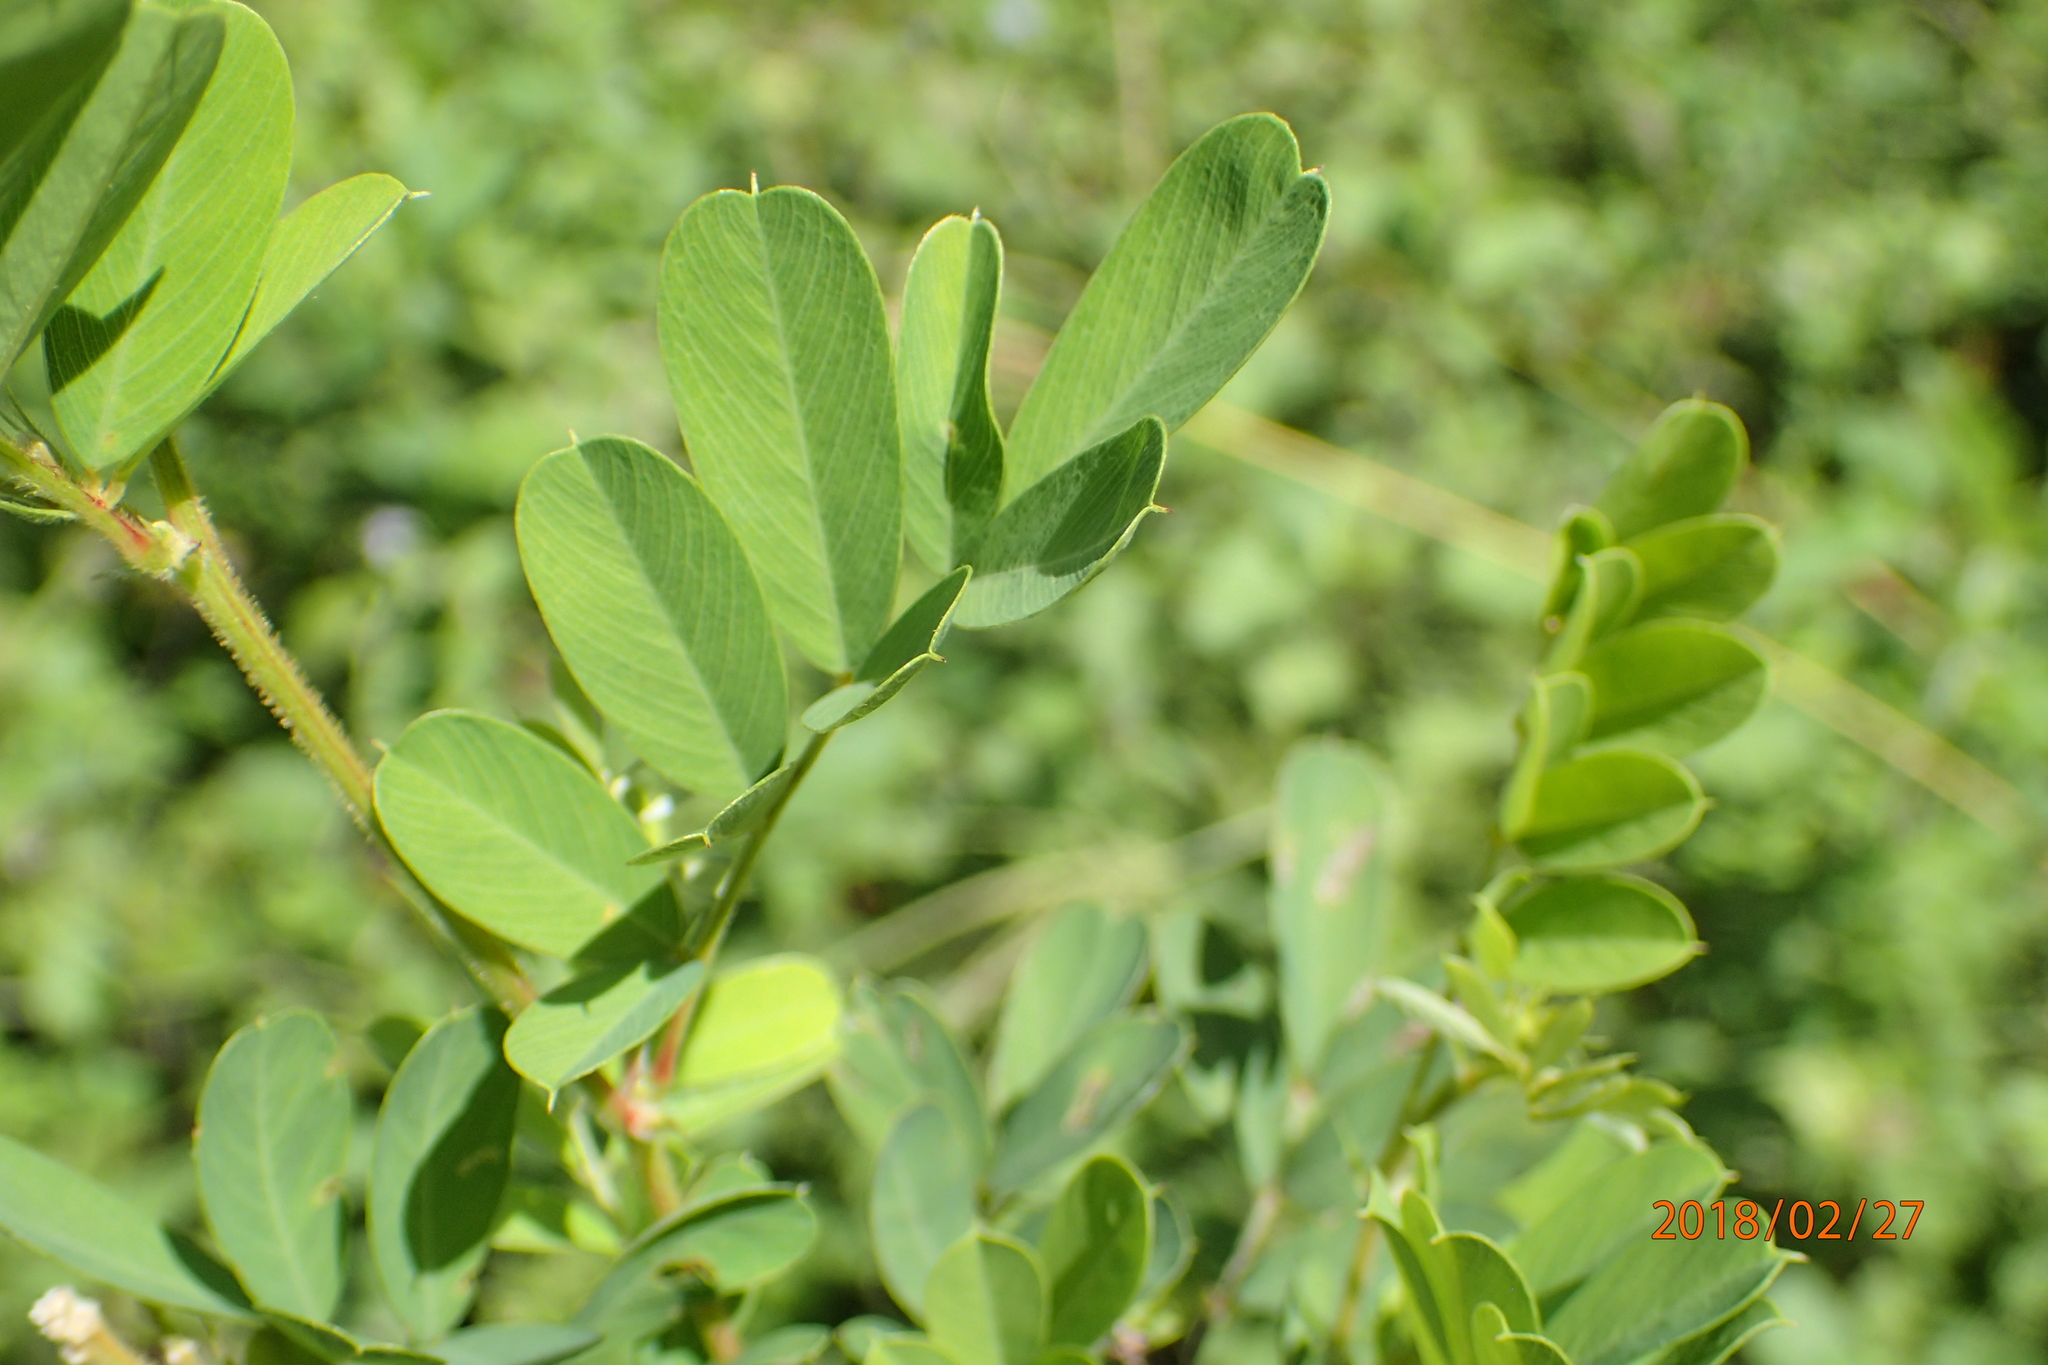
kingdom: Plantae
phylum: Tracheophyta
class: Magnoliopsida
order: Fabales
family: Fabaceae
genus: Tephrosia
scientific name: Tephrosia inandensis
